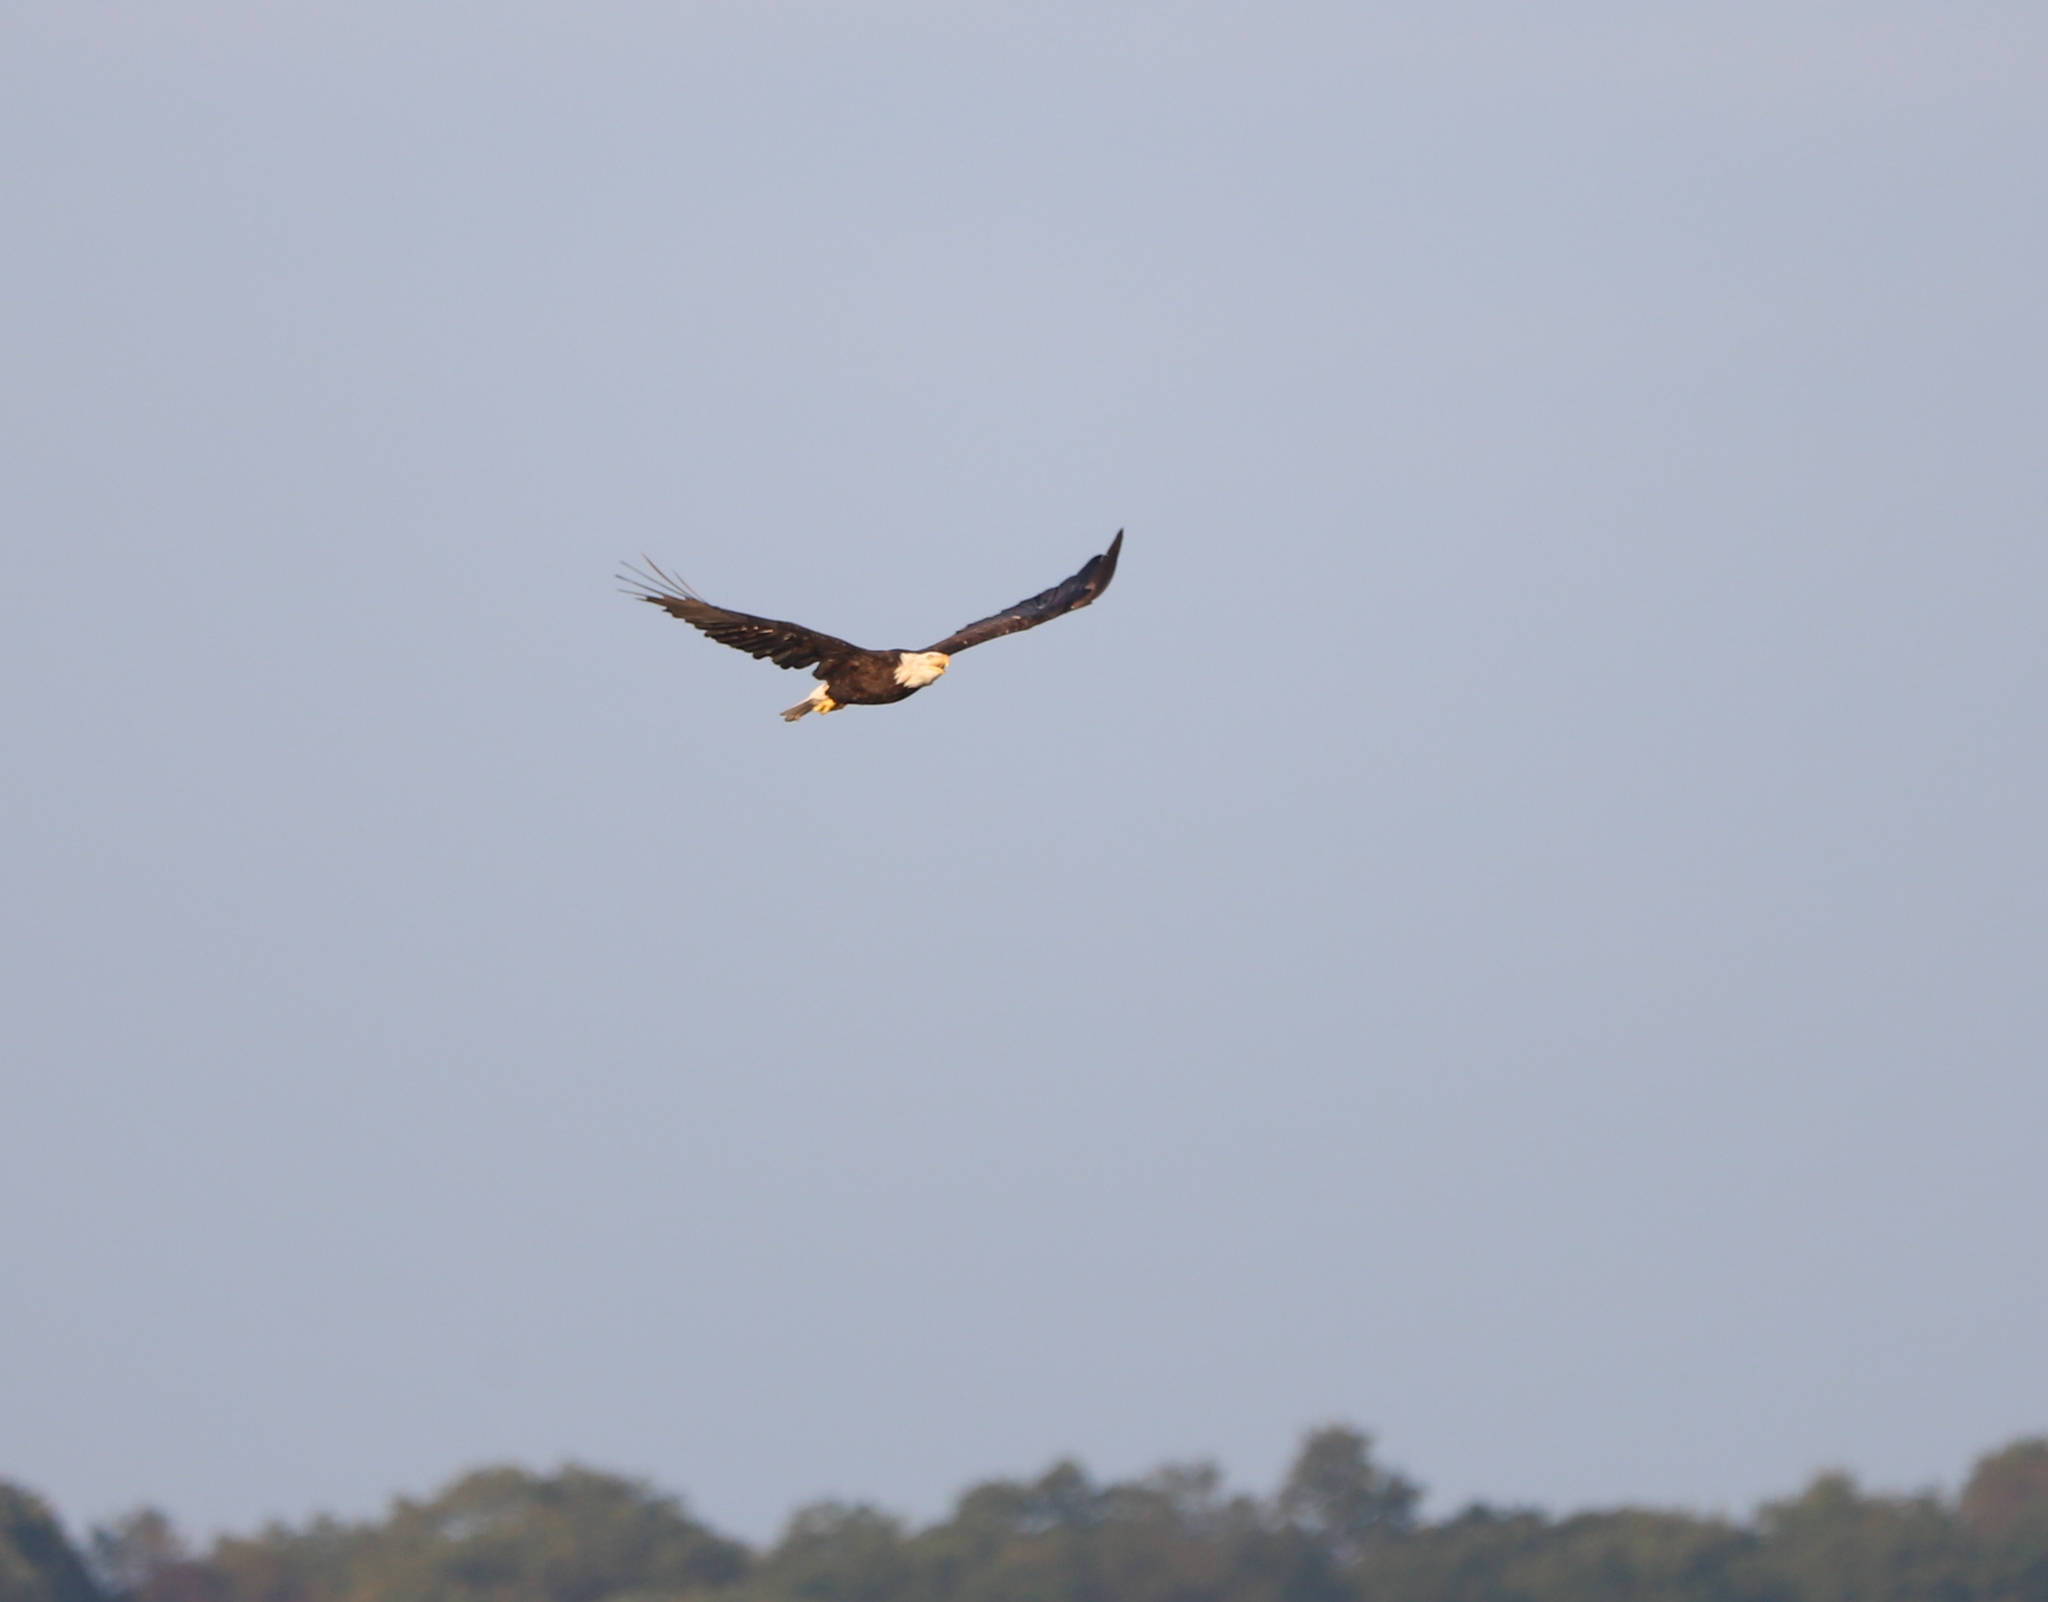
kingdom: Animalia
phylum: Chordata
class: Aves
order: Accipitriformes
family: Accipitridae
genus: Haliaeetus
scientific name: Haliaeetus leucocephalus
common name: Bald eagle
